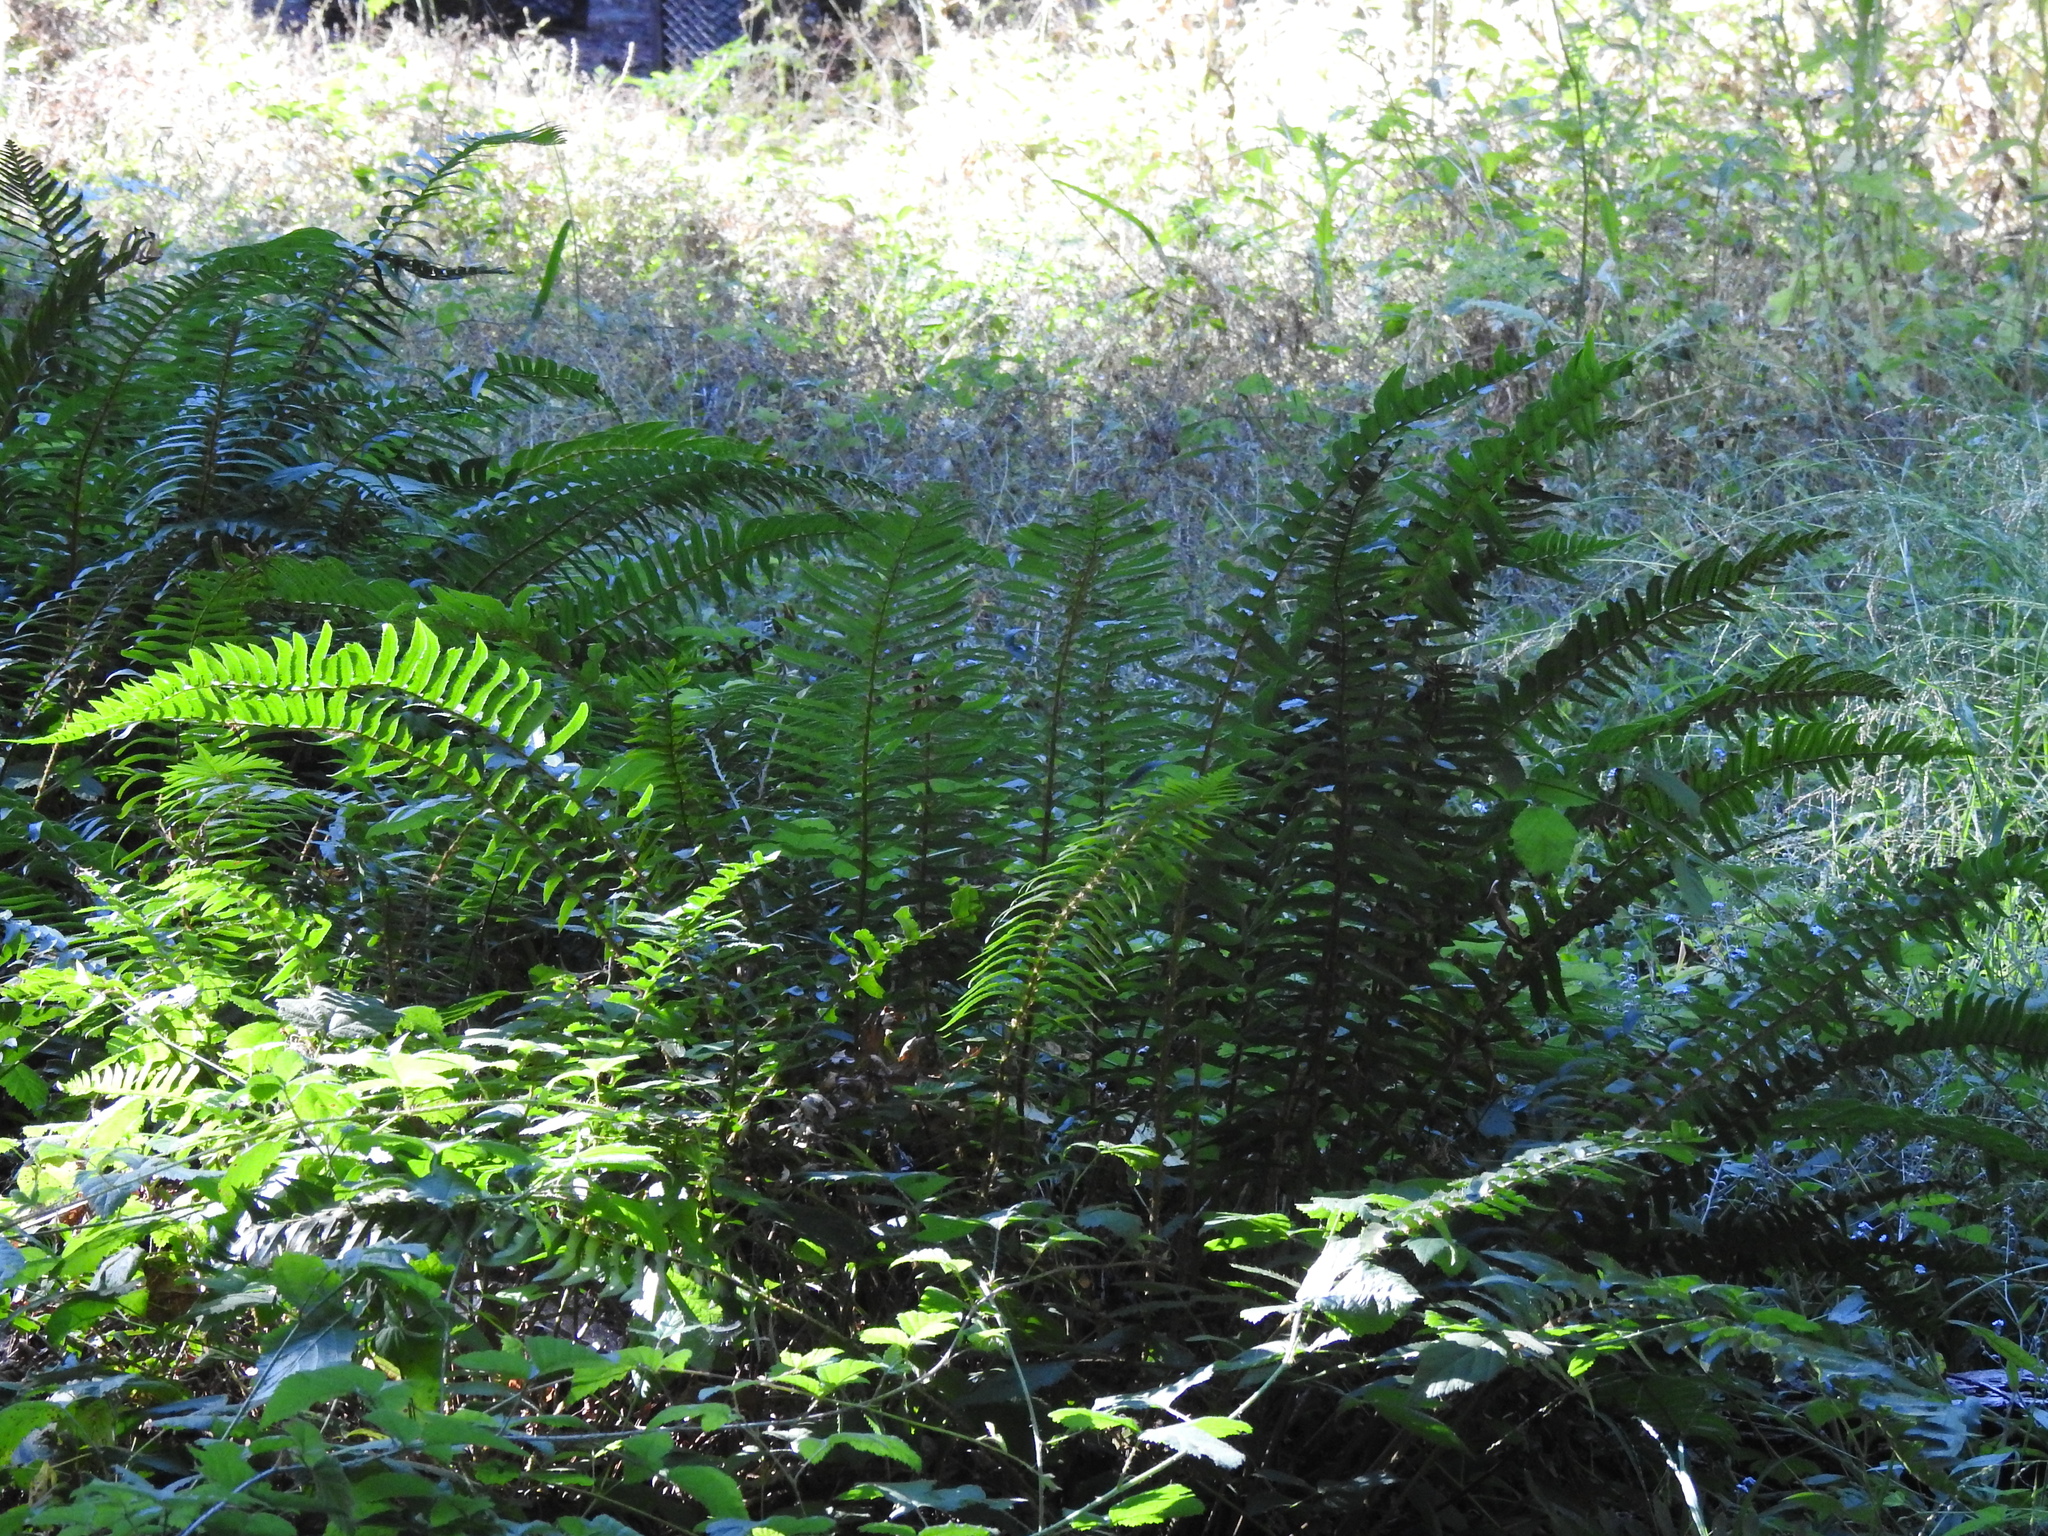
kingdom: Plantae
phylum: Tracheophyta
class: Polypodiopsida
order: Polypodiales
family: Dryopteridaceae
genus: Polystichum
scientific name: Polystichum munitum
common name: Western sword-fern
